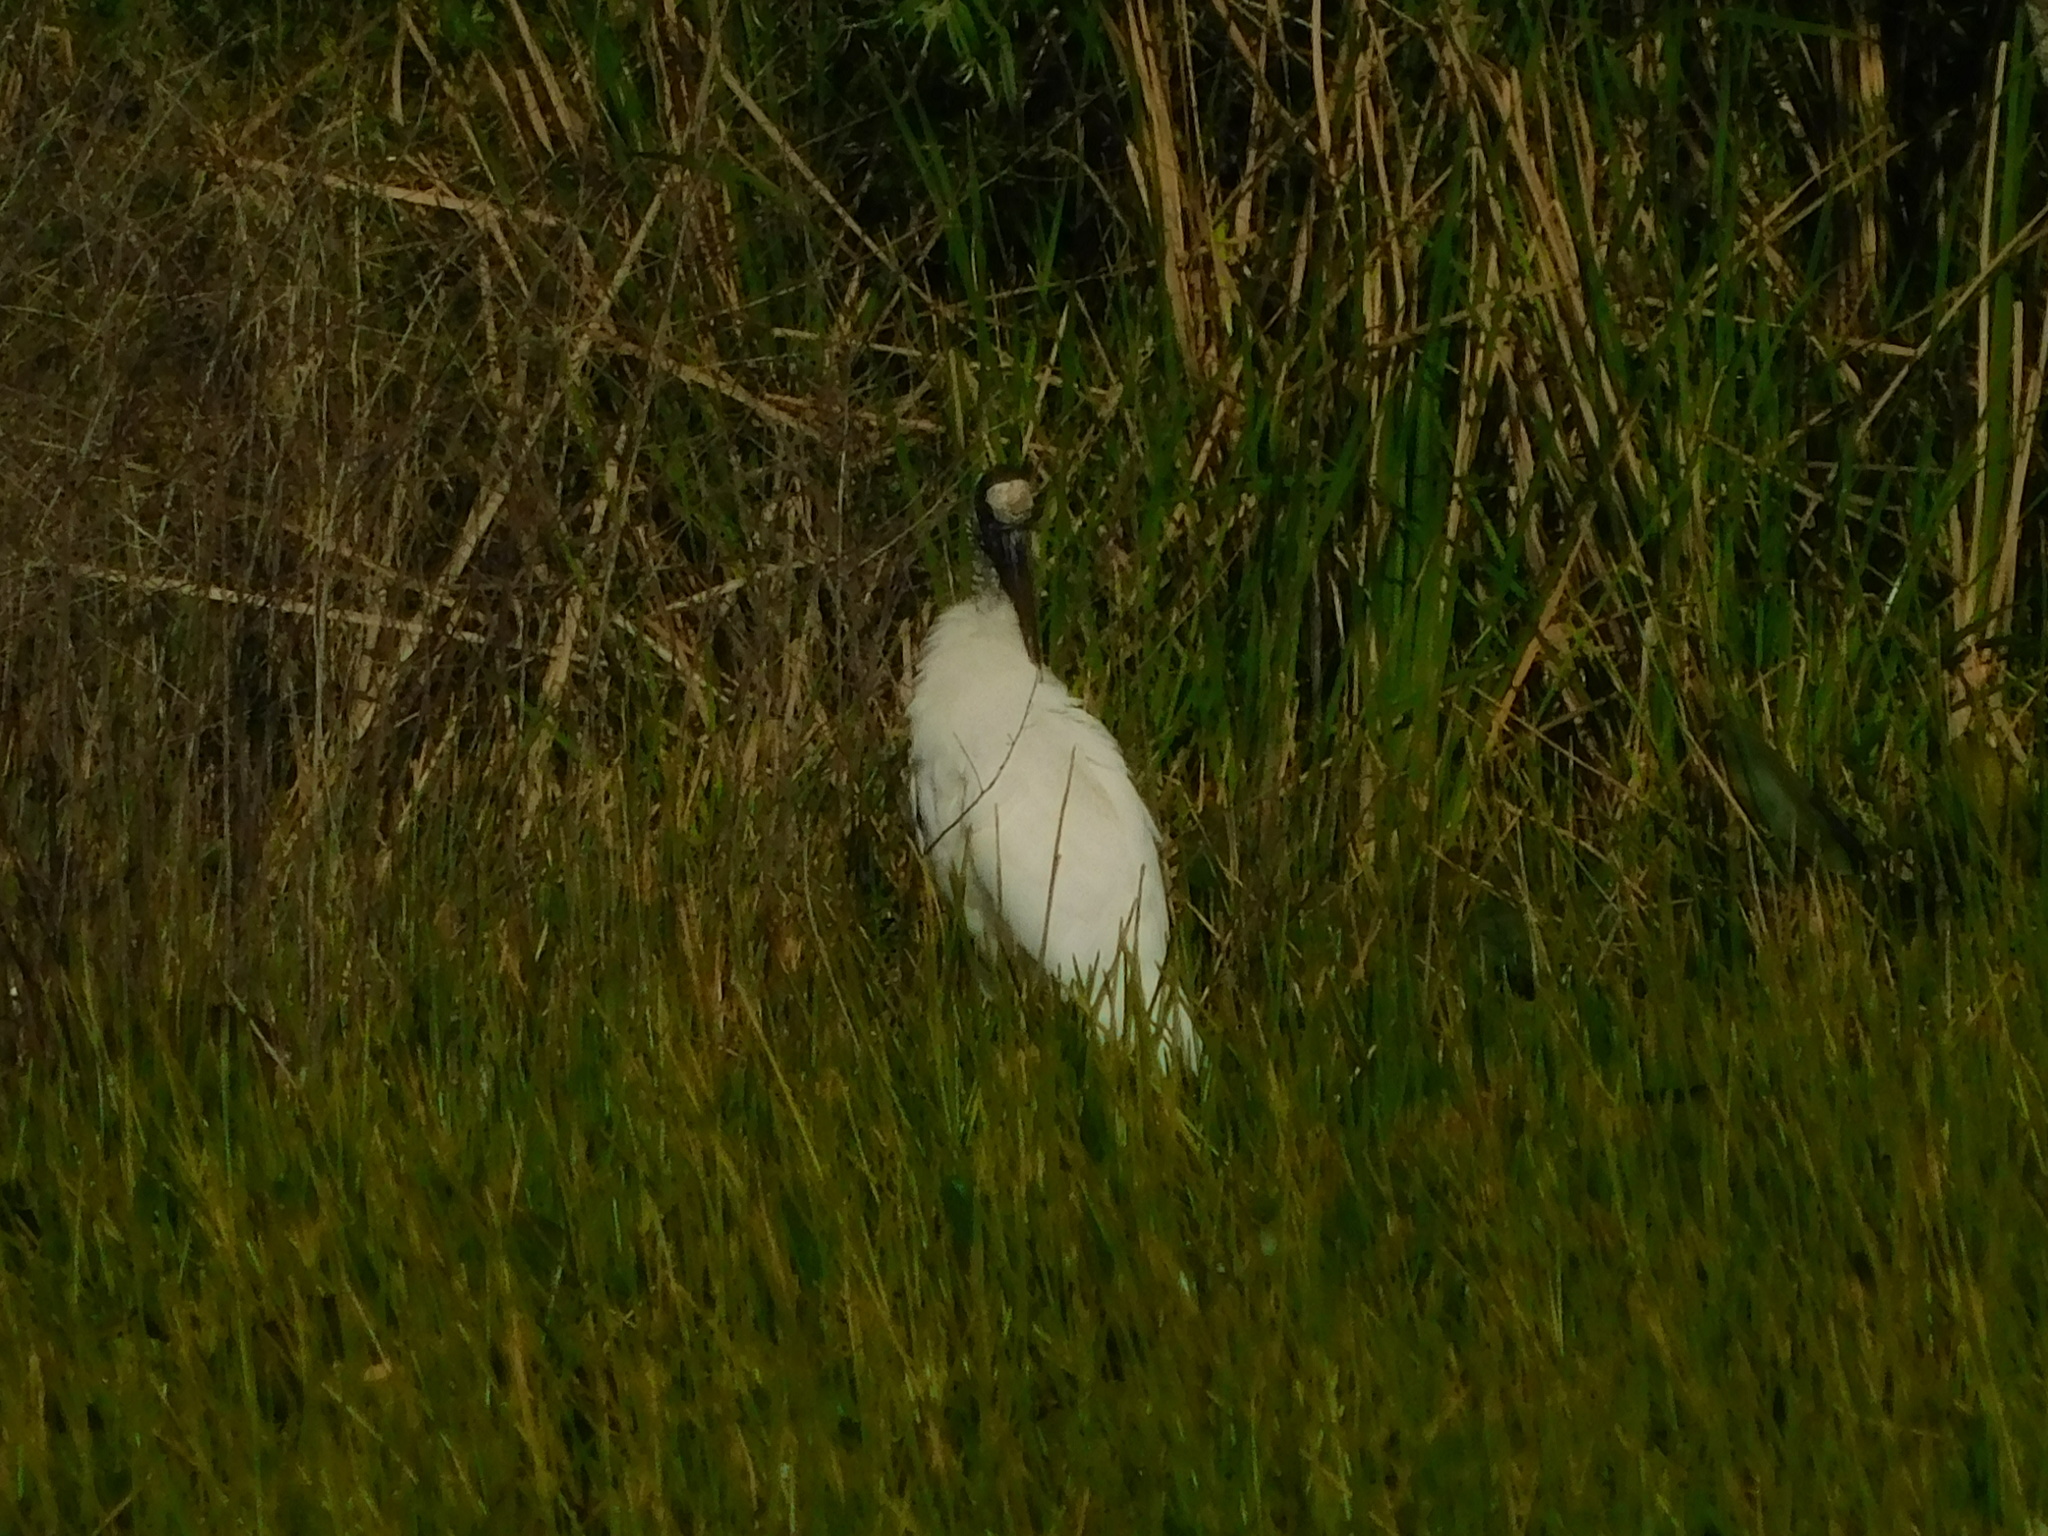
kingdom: Animalia
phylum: Chordata
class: Aves
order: Ciconiiformes
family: Ciconiidae
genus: Mycteria
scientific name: Mycteria americana
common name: Wood stork
